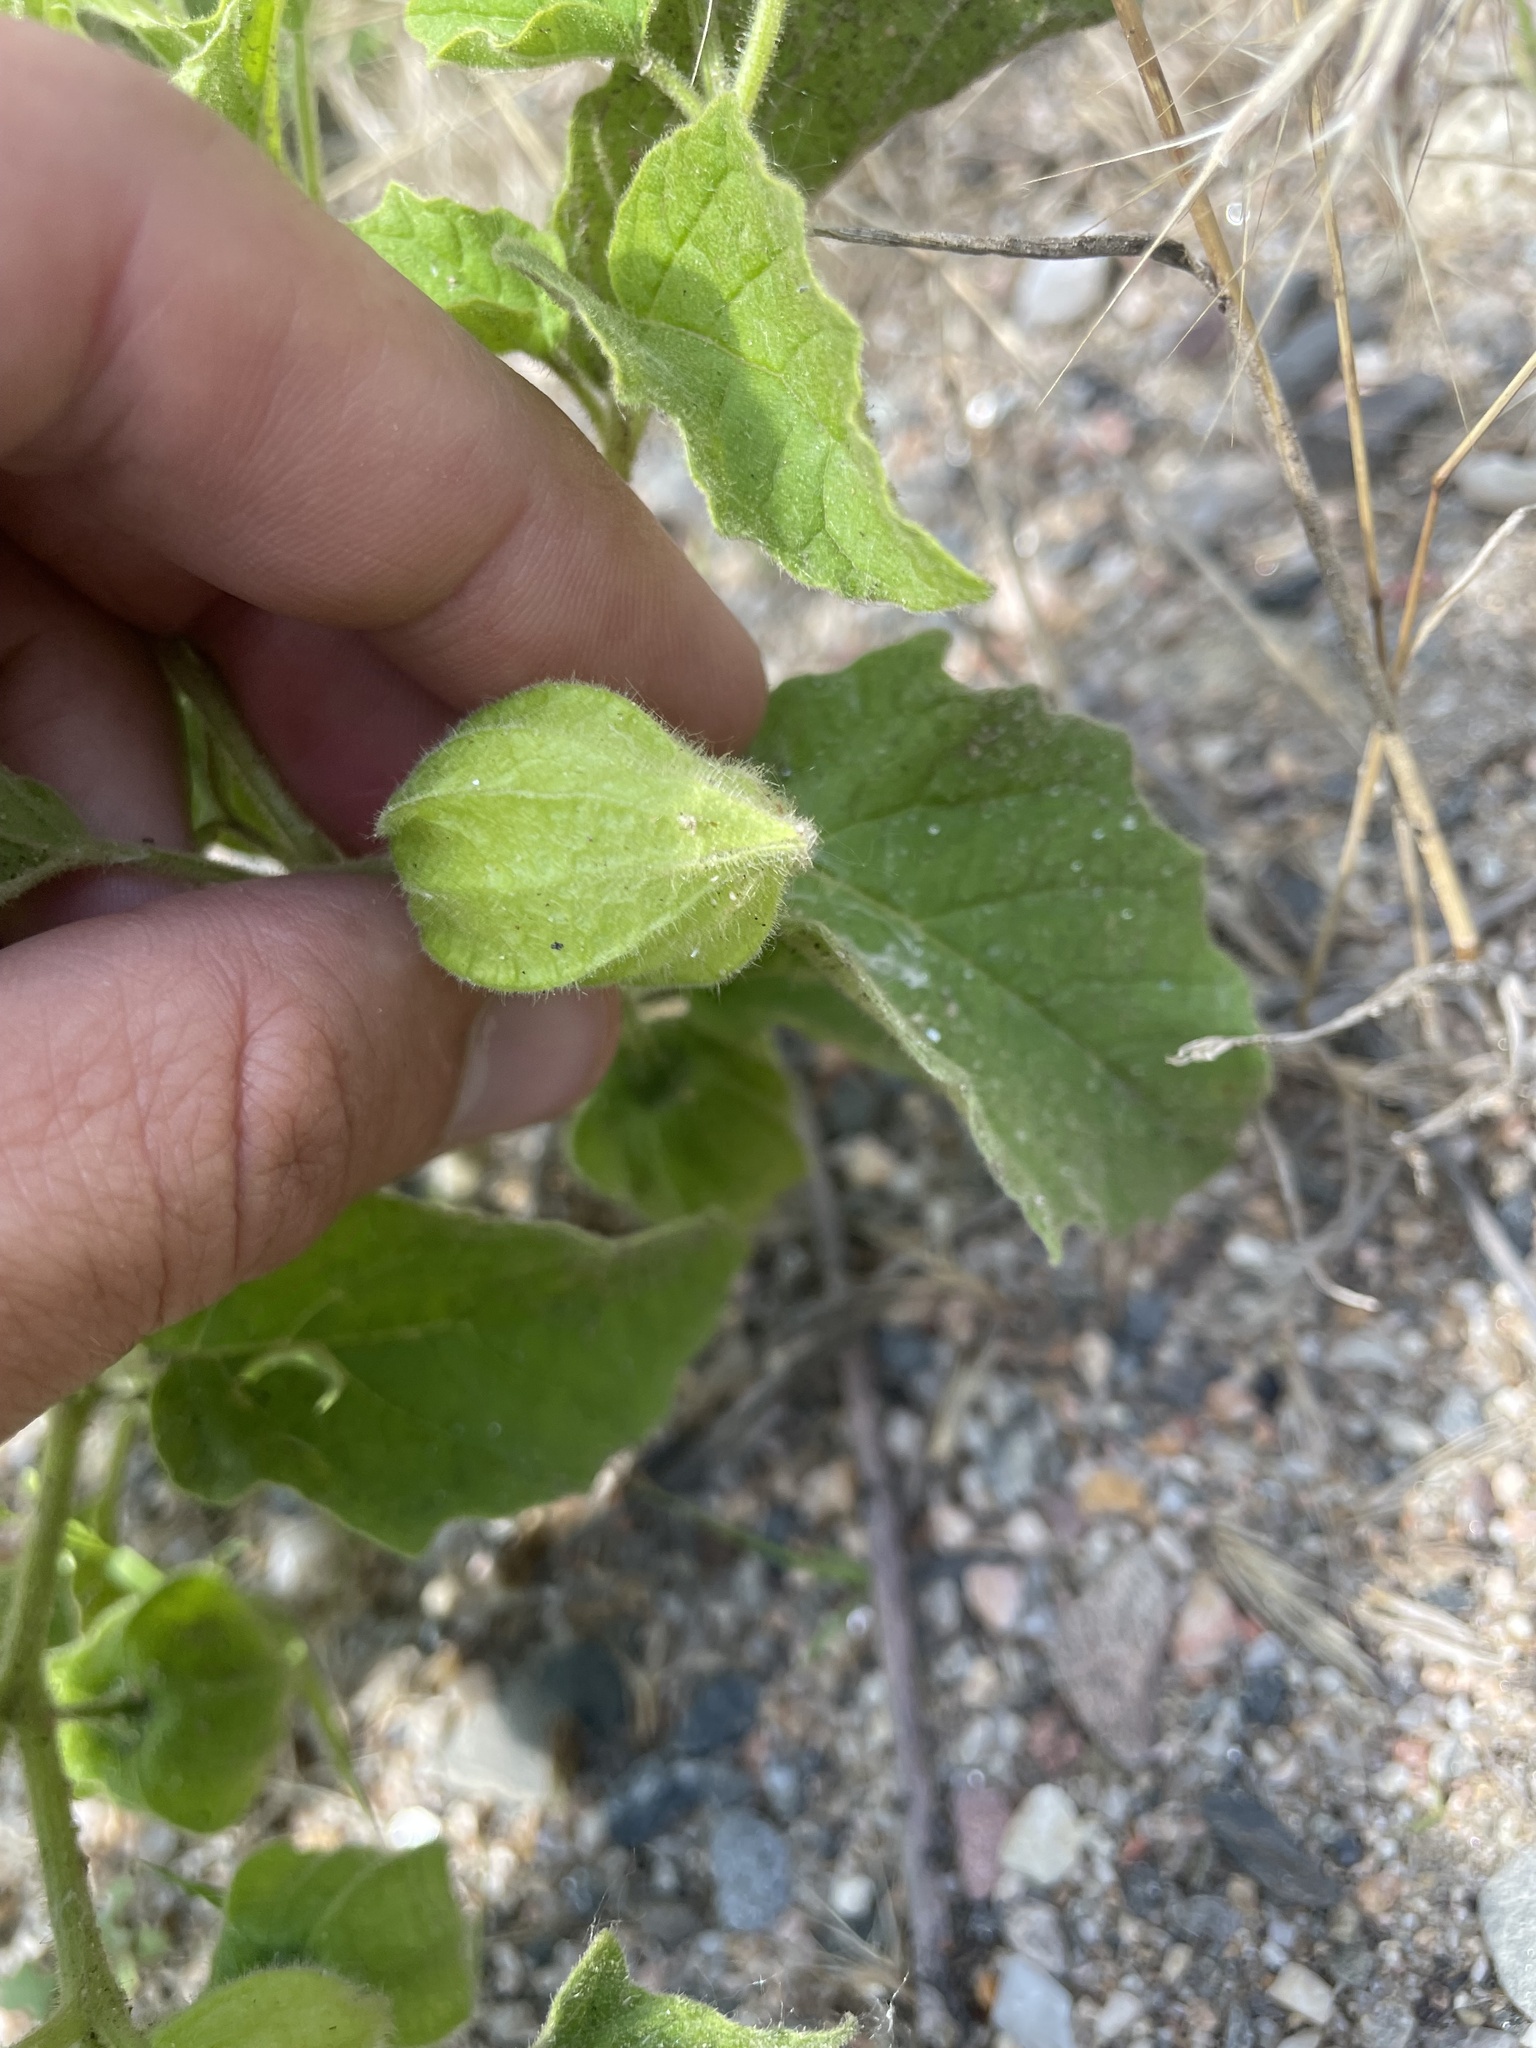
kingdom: Plantae
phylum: Tracheophyta
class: Magnoliopsida
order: Solanales
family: Solanaceae
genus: Physalis
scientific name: Physalis heterophylla
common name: Clammy ground-cherry
